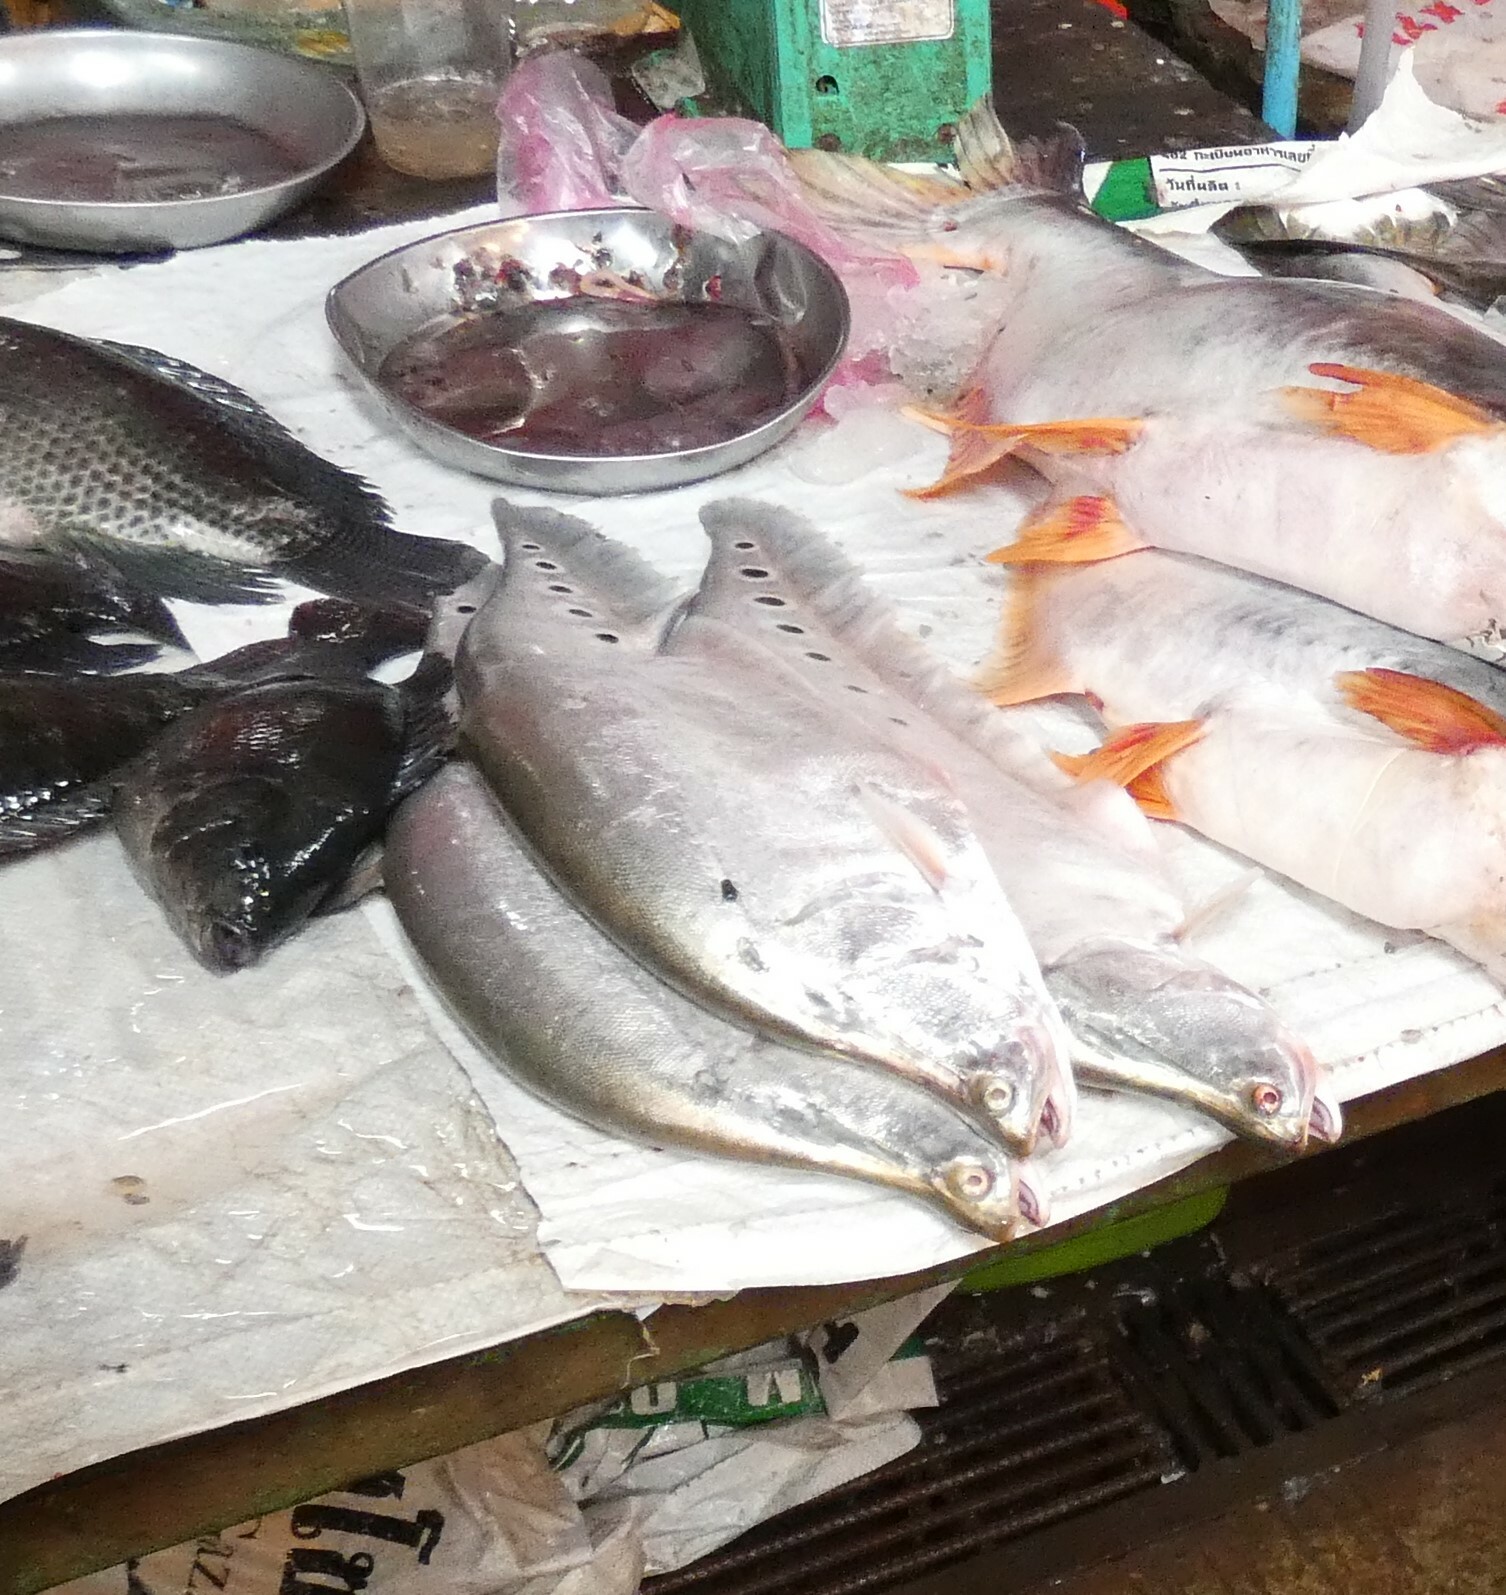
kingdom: Animalia
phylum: Chordata
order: Osteoglossiformes
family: Notopteridae
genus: Chitala
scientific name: Chitala ornata
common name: Clown knifefish
